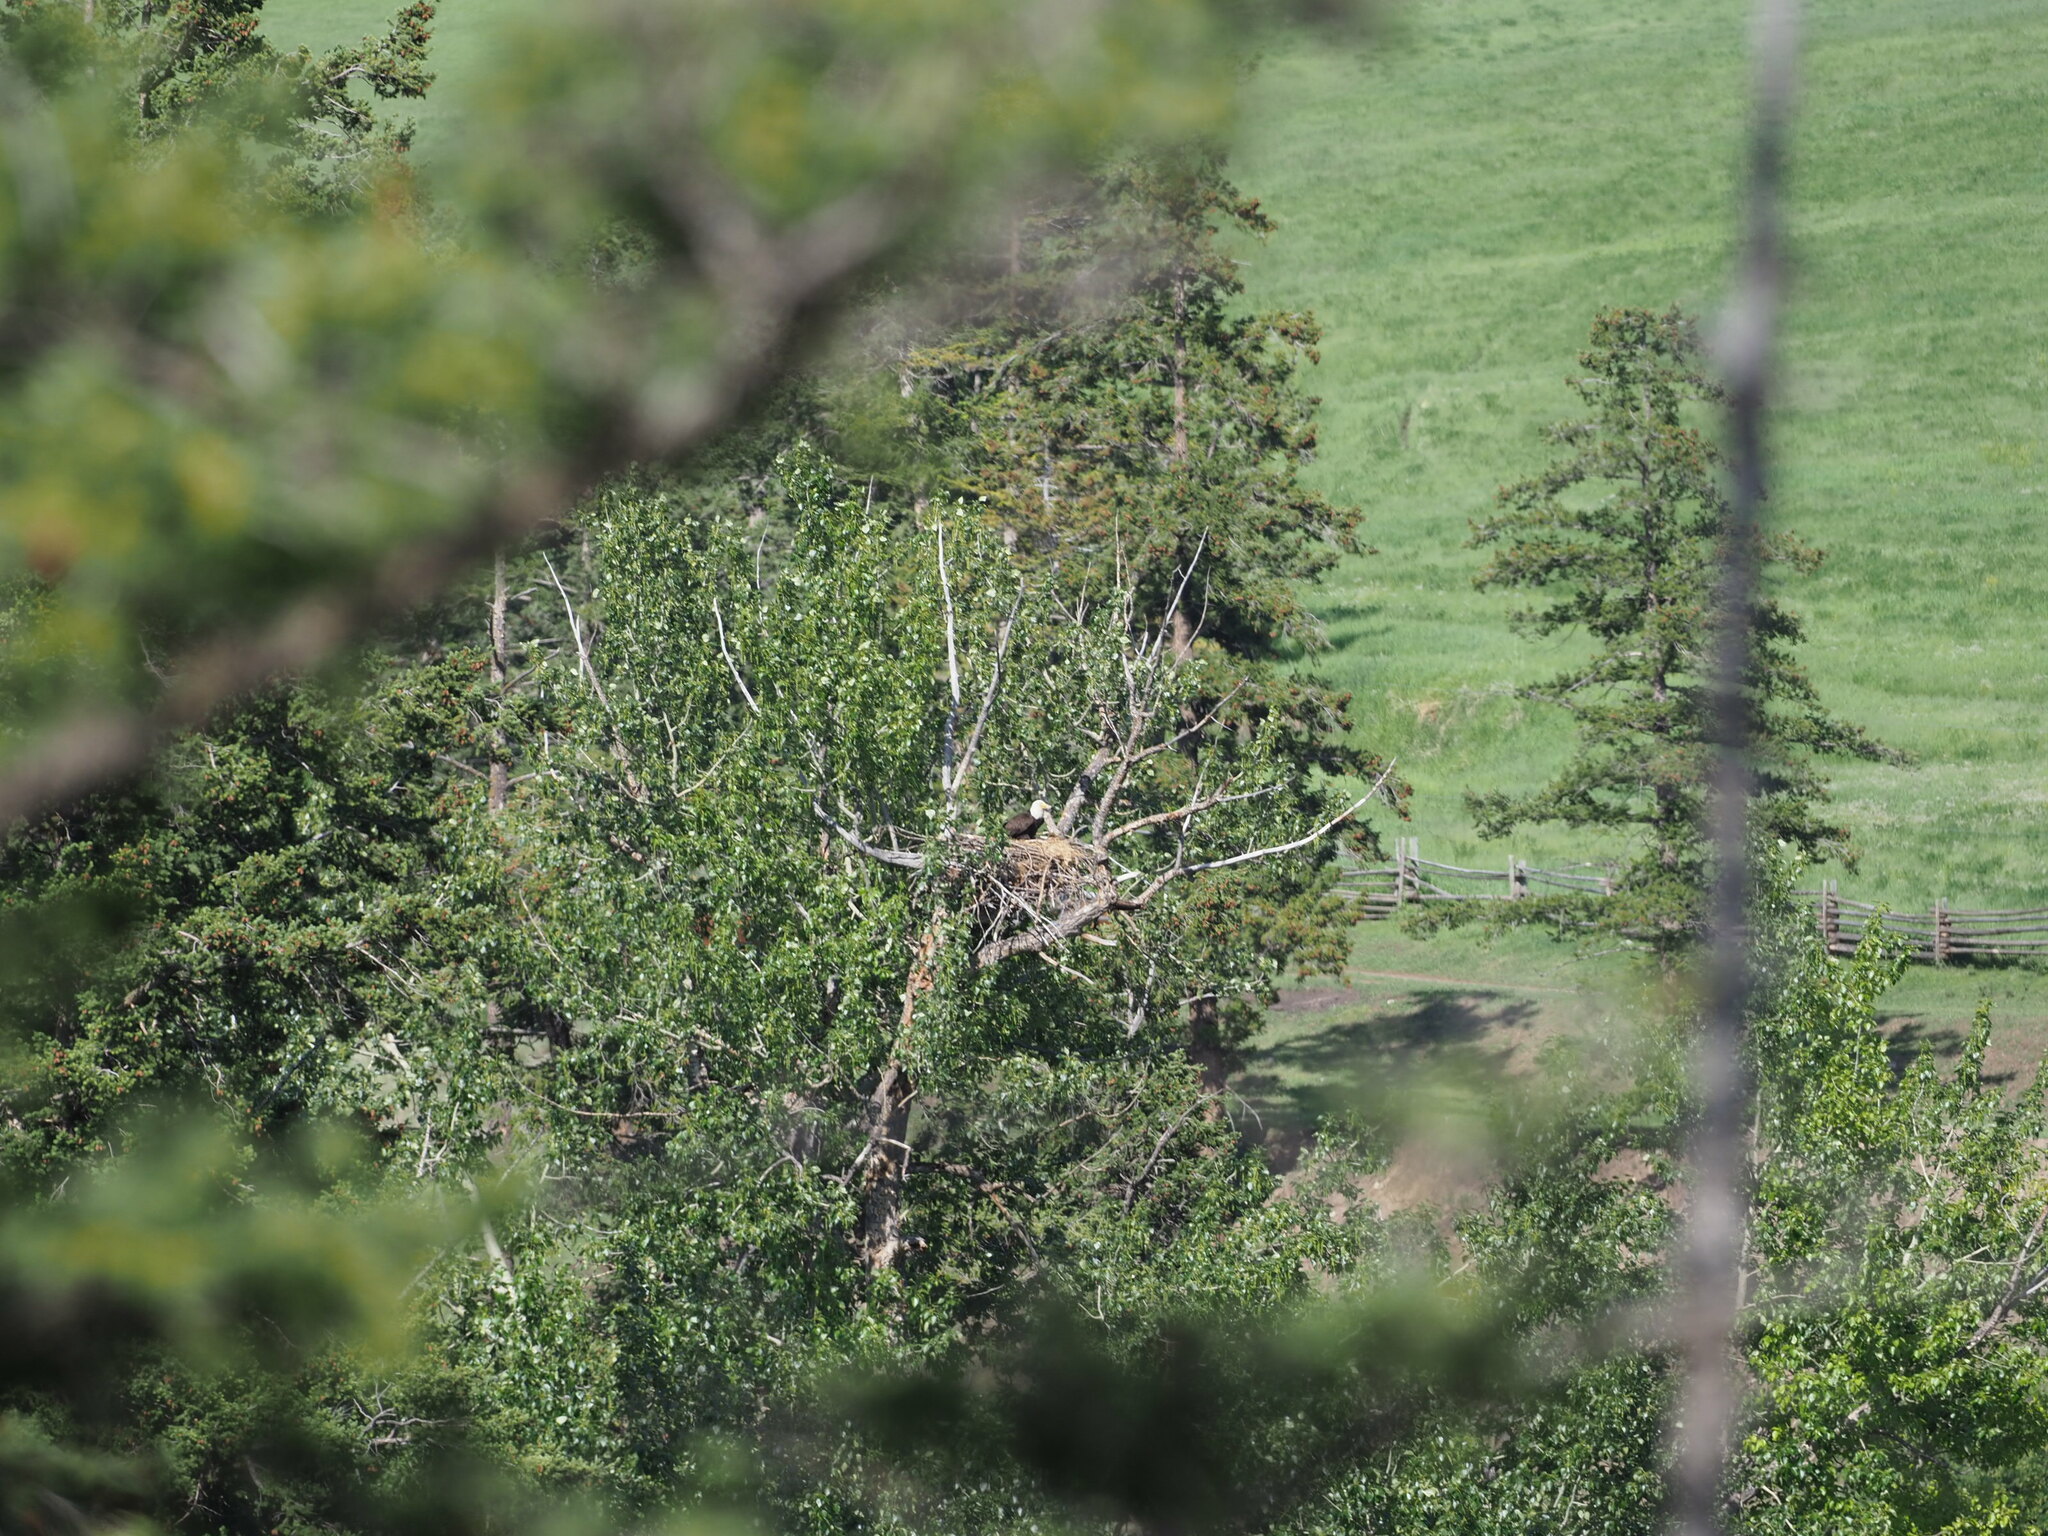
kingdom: Animalia
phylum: Chordata
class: Aves
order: Accipitriformes
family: Accipitridae
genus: Haliaeetus
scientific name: Haliaeetus leucocephalus
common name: Bald eagle
